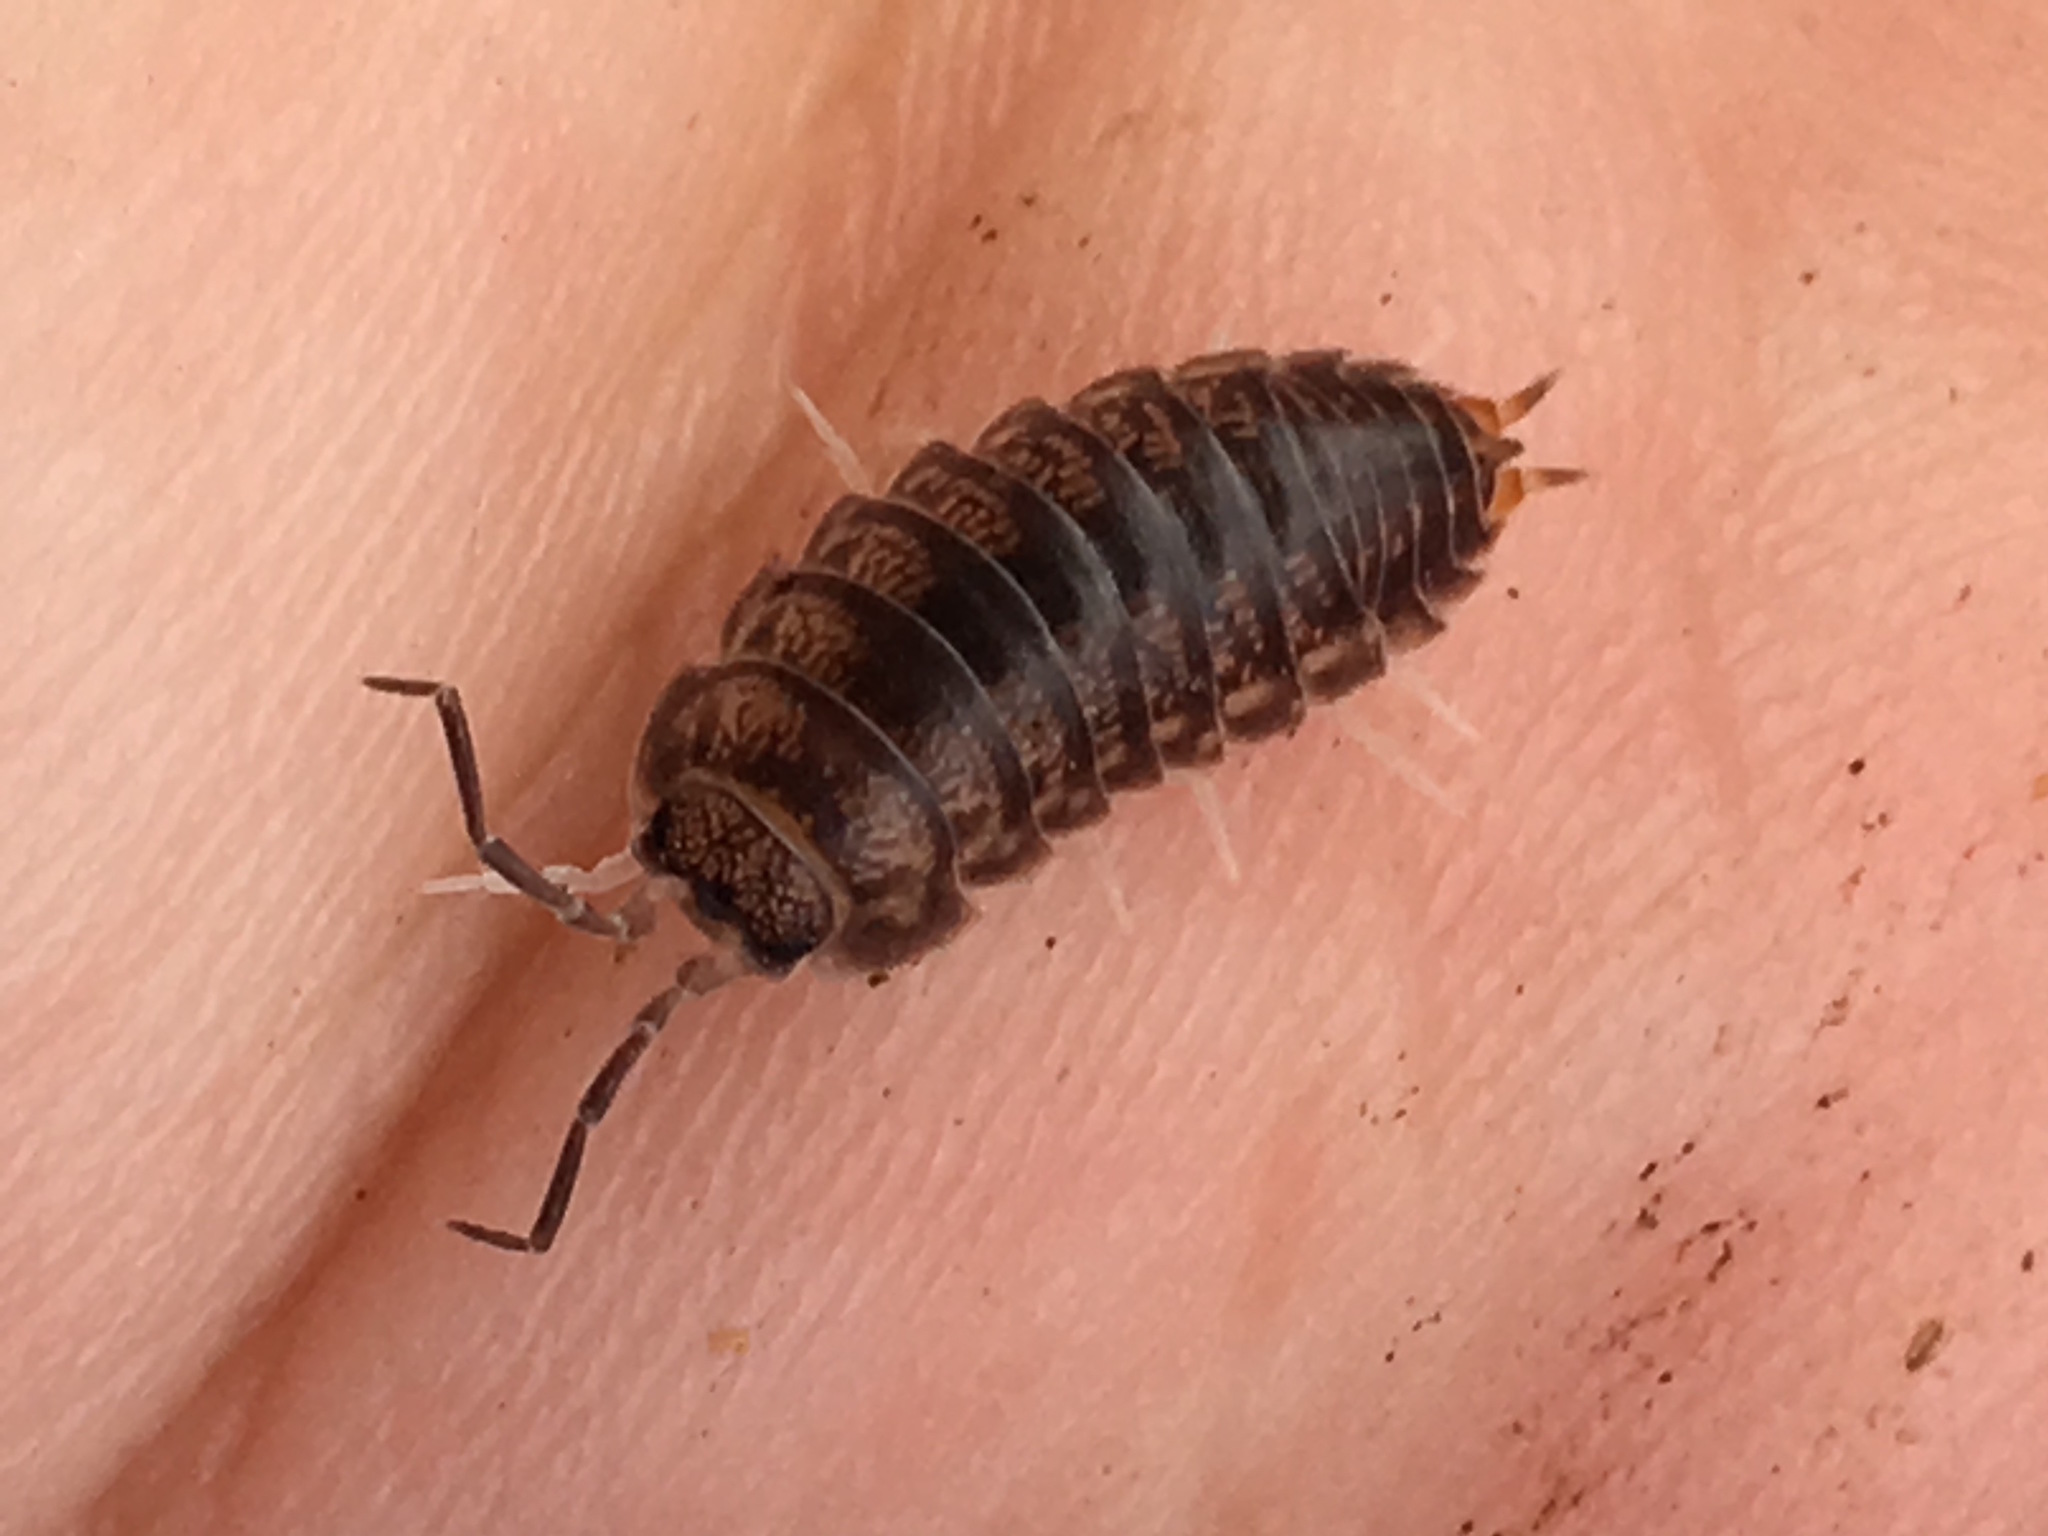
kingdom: Animalia
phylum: Arthropoda
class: Malacostraca
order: Isopoda
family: Cylisticidae
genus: Cylisticus
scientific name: Cylisticus convexus
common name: Curly woodlouse
